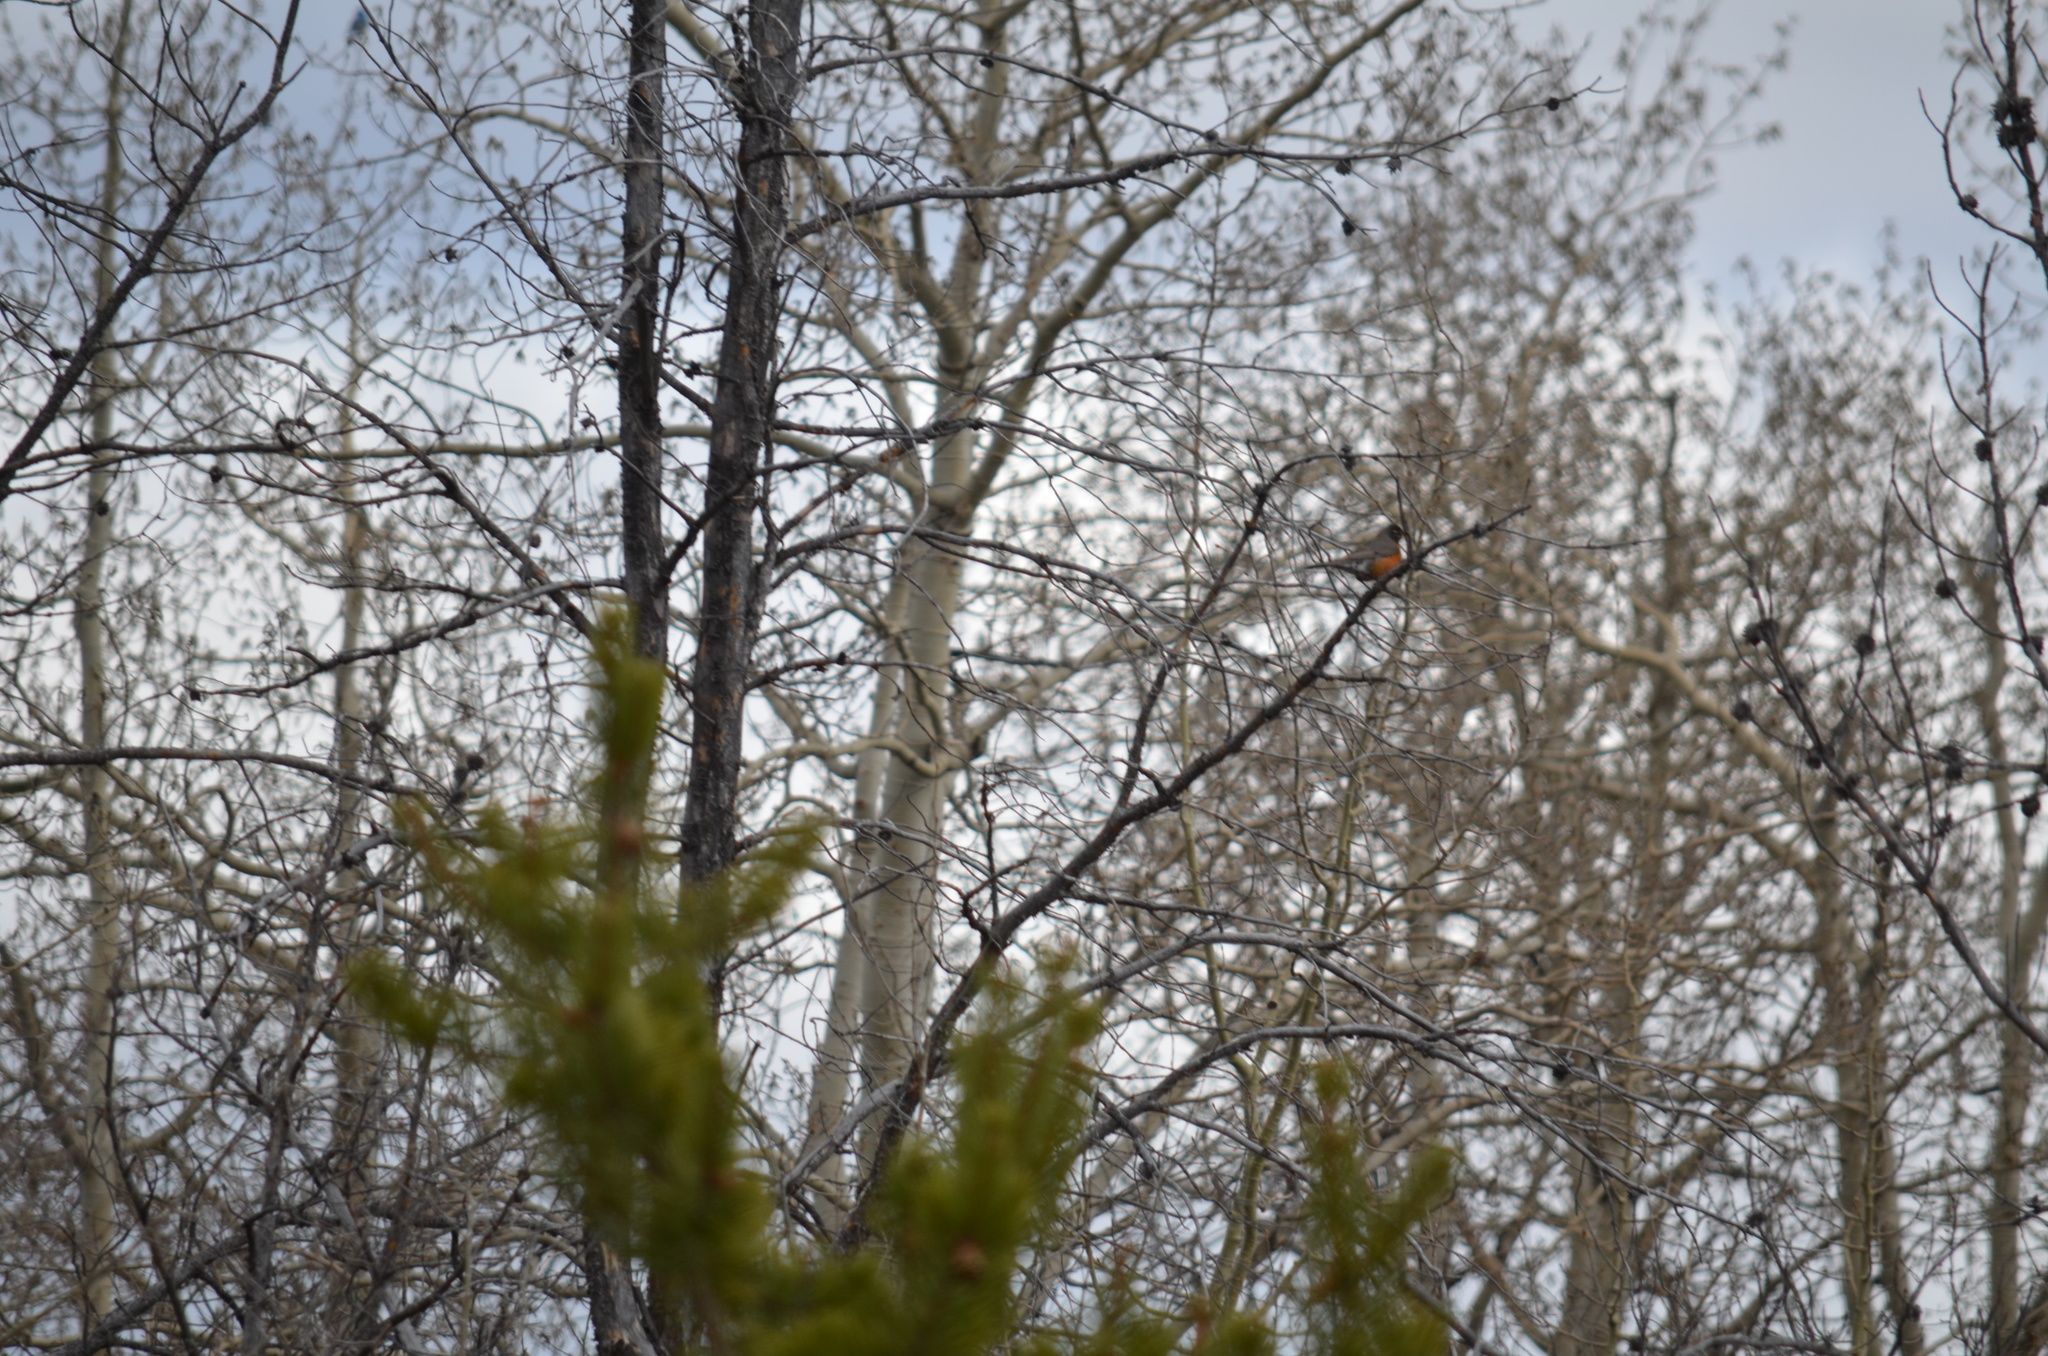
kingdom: Animalia
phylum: Chordata
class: Aves
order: Passeriformes
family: Turdidae
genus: Turdus
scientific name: Turdus migratorius
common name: American robin
